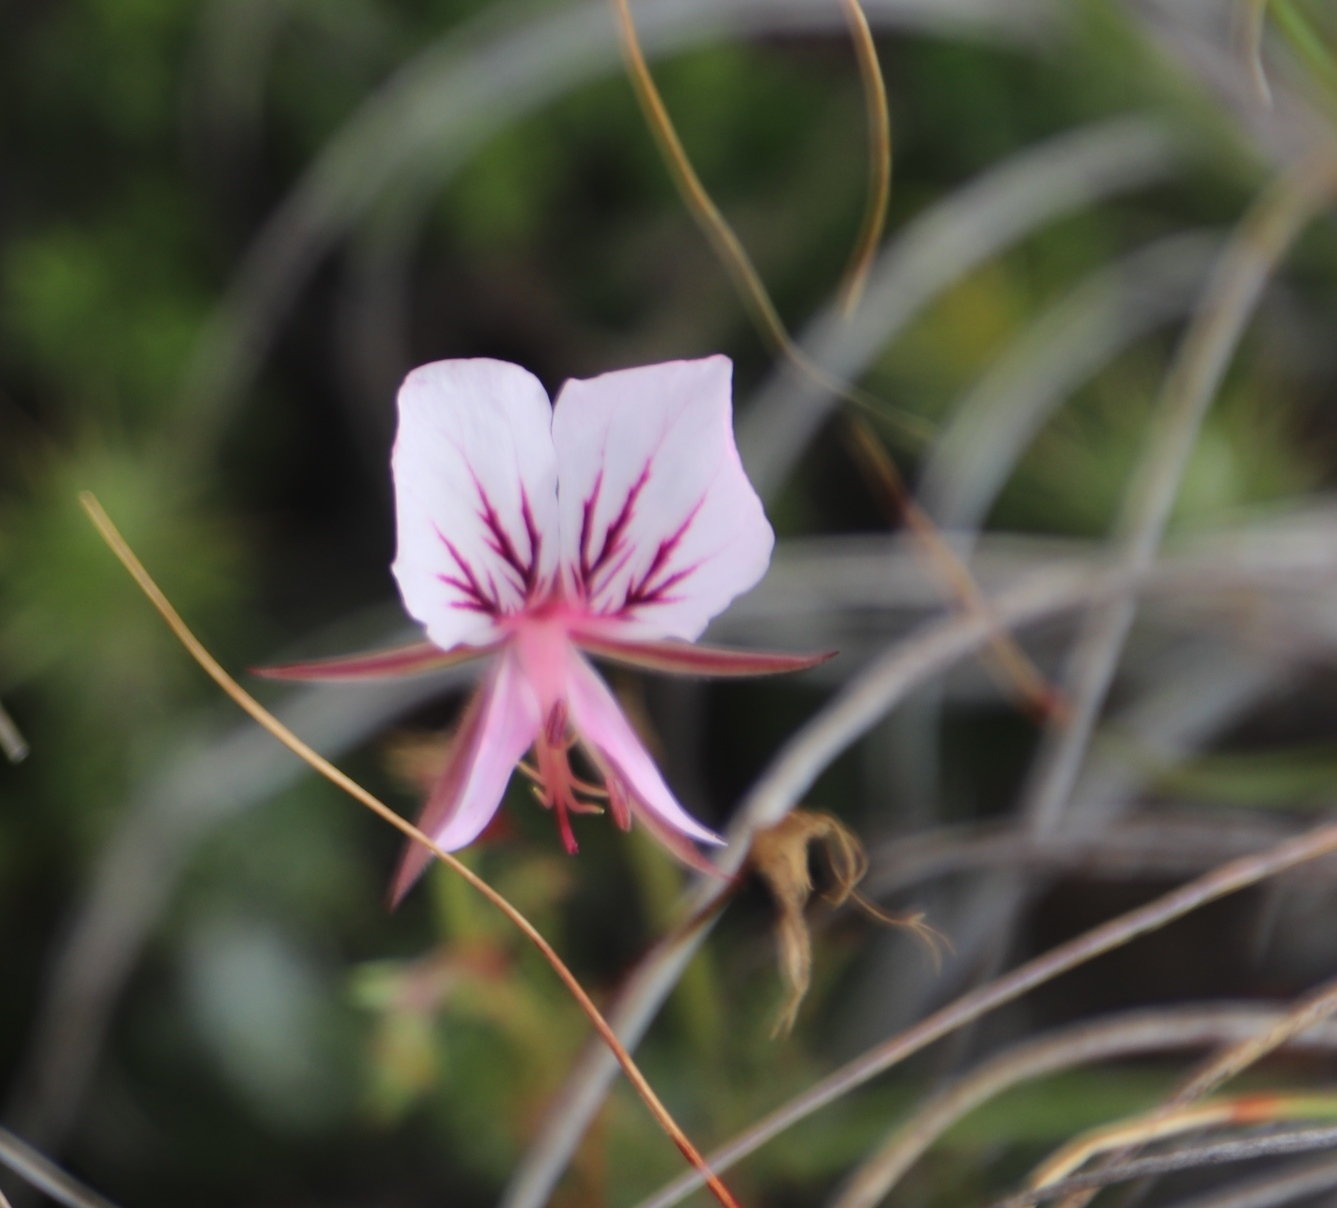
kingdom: Plantae
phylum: Tracheophyta
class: Magnoliopsida
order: Geraniales
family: Geraniaceae
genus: Pelargonium
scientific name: Pelargonium caucalifolium
